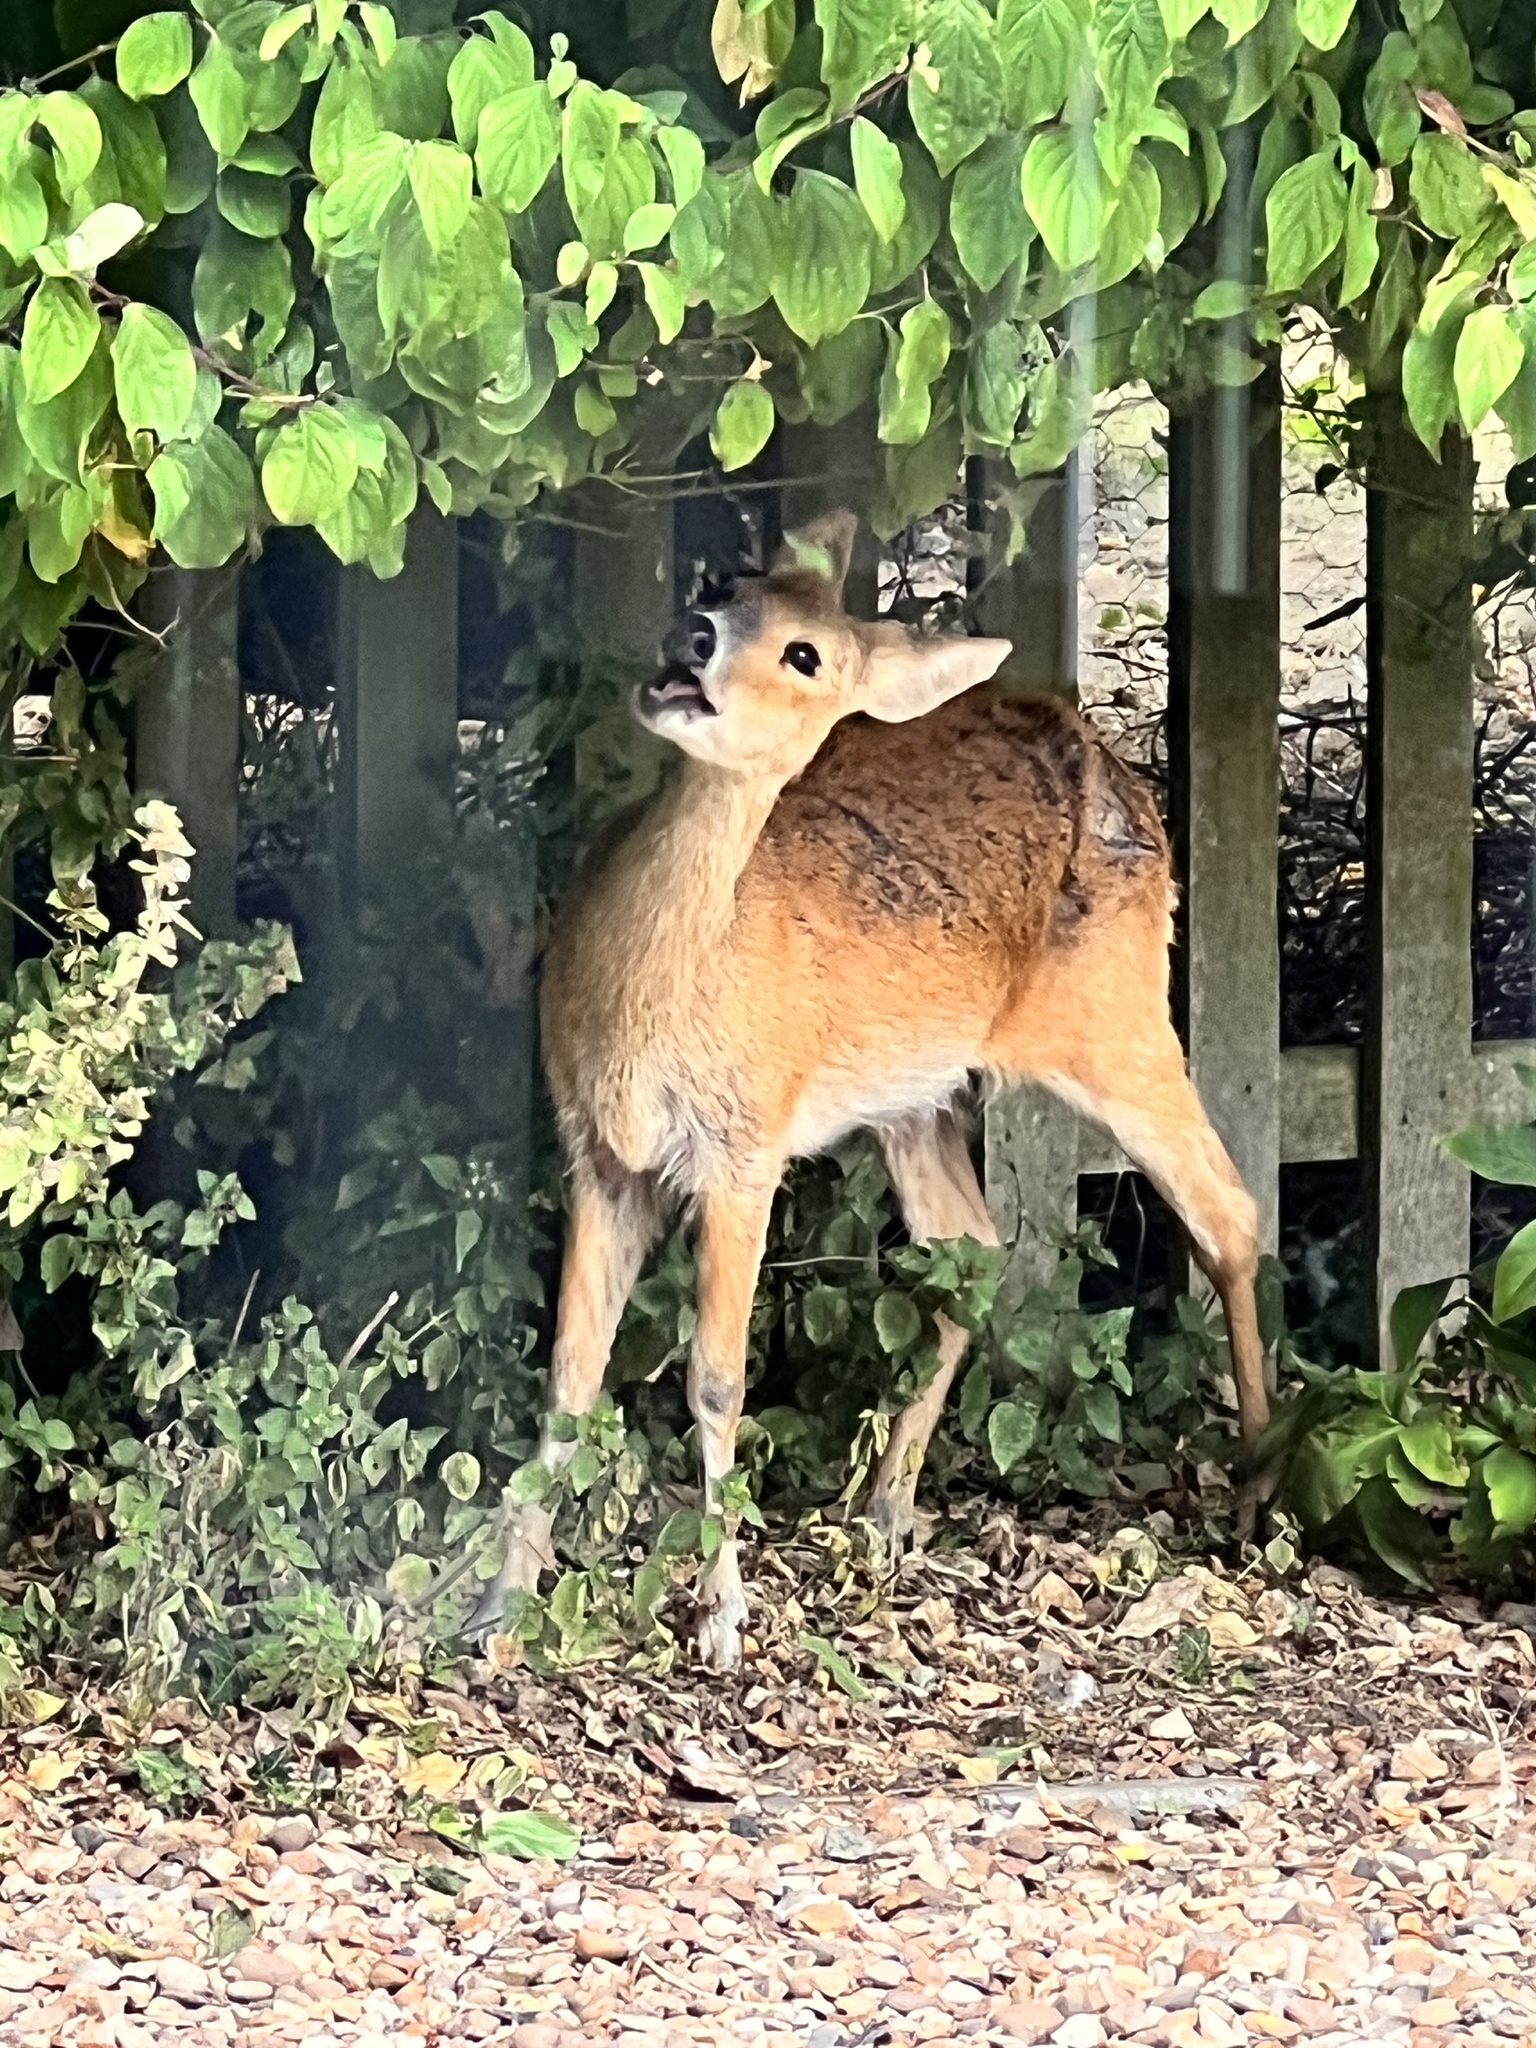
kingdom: Animalia
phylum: Chordata
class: Mammalia
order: Artiodactyla
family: Cervidae
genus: Capreolus
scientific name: Capreolus capreolus
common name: Western roe deer
